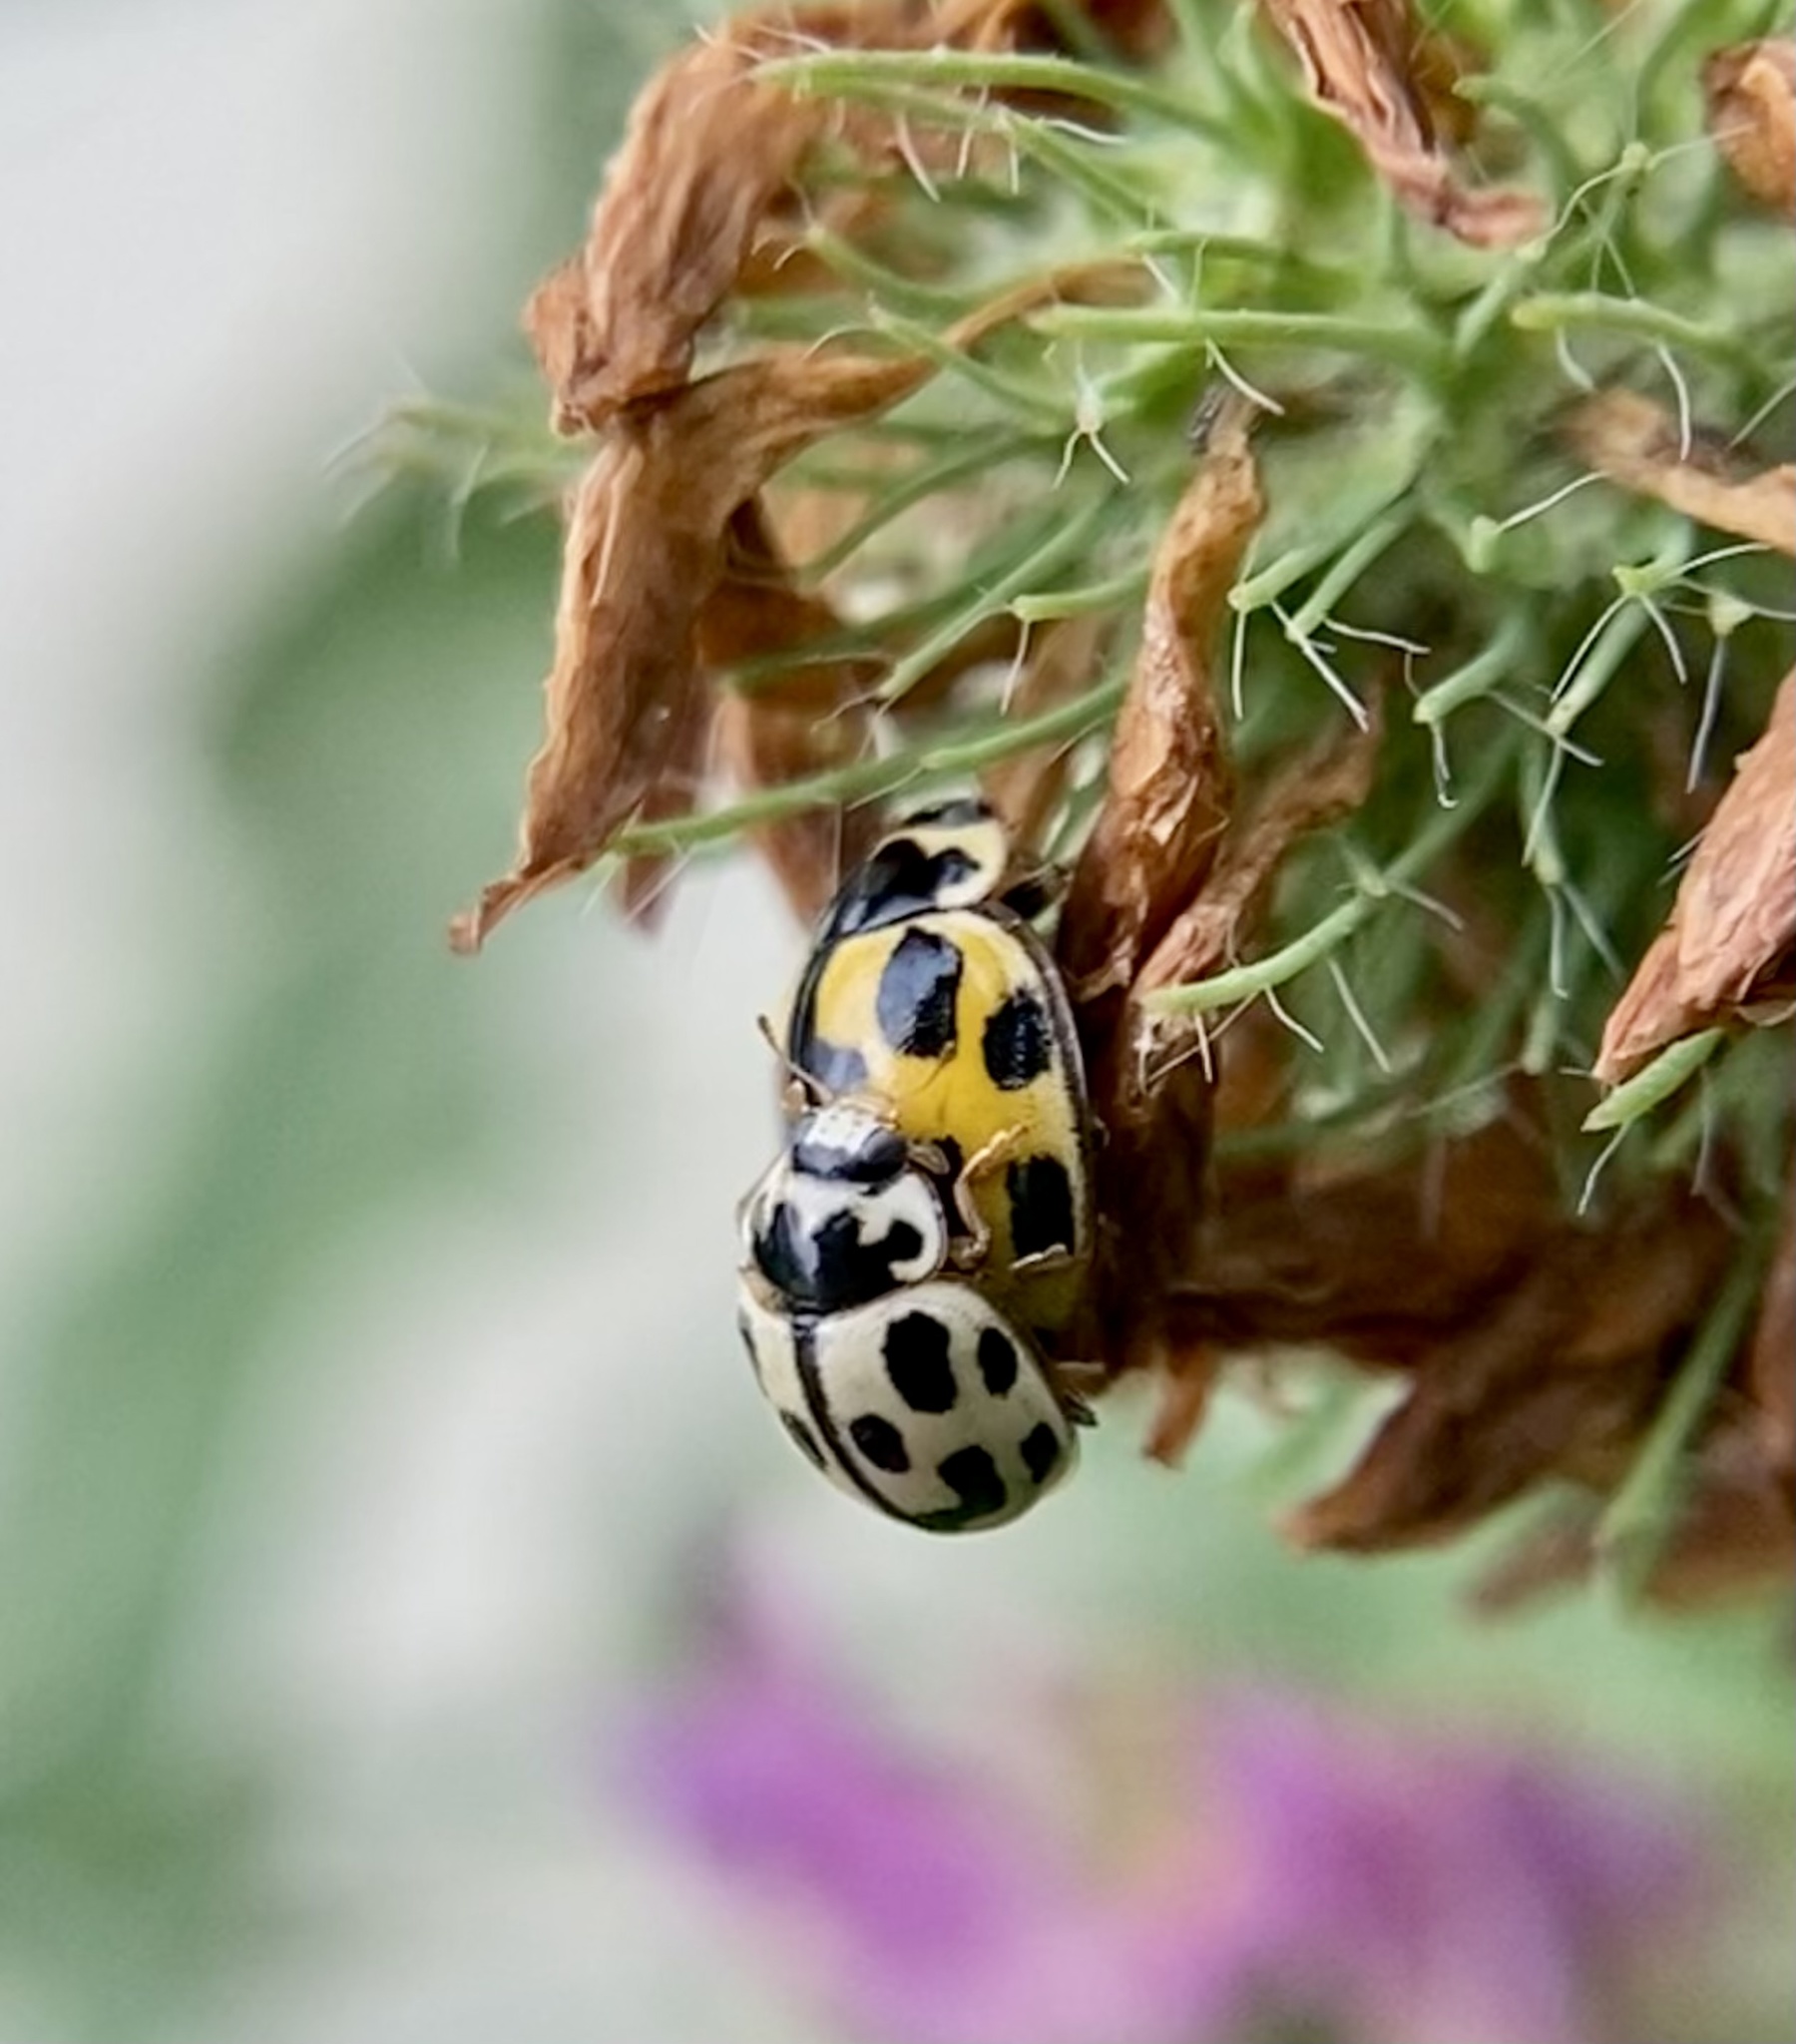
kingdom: Animalia
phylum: Arthropoda
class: Insecta
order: Coleoptera
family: Coccinellidae
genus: Propylaea
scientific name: Propylaea quatuordecimpunctata
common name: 14-spotted ladybird beetle
